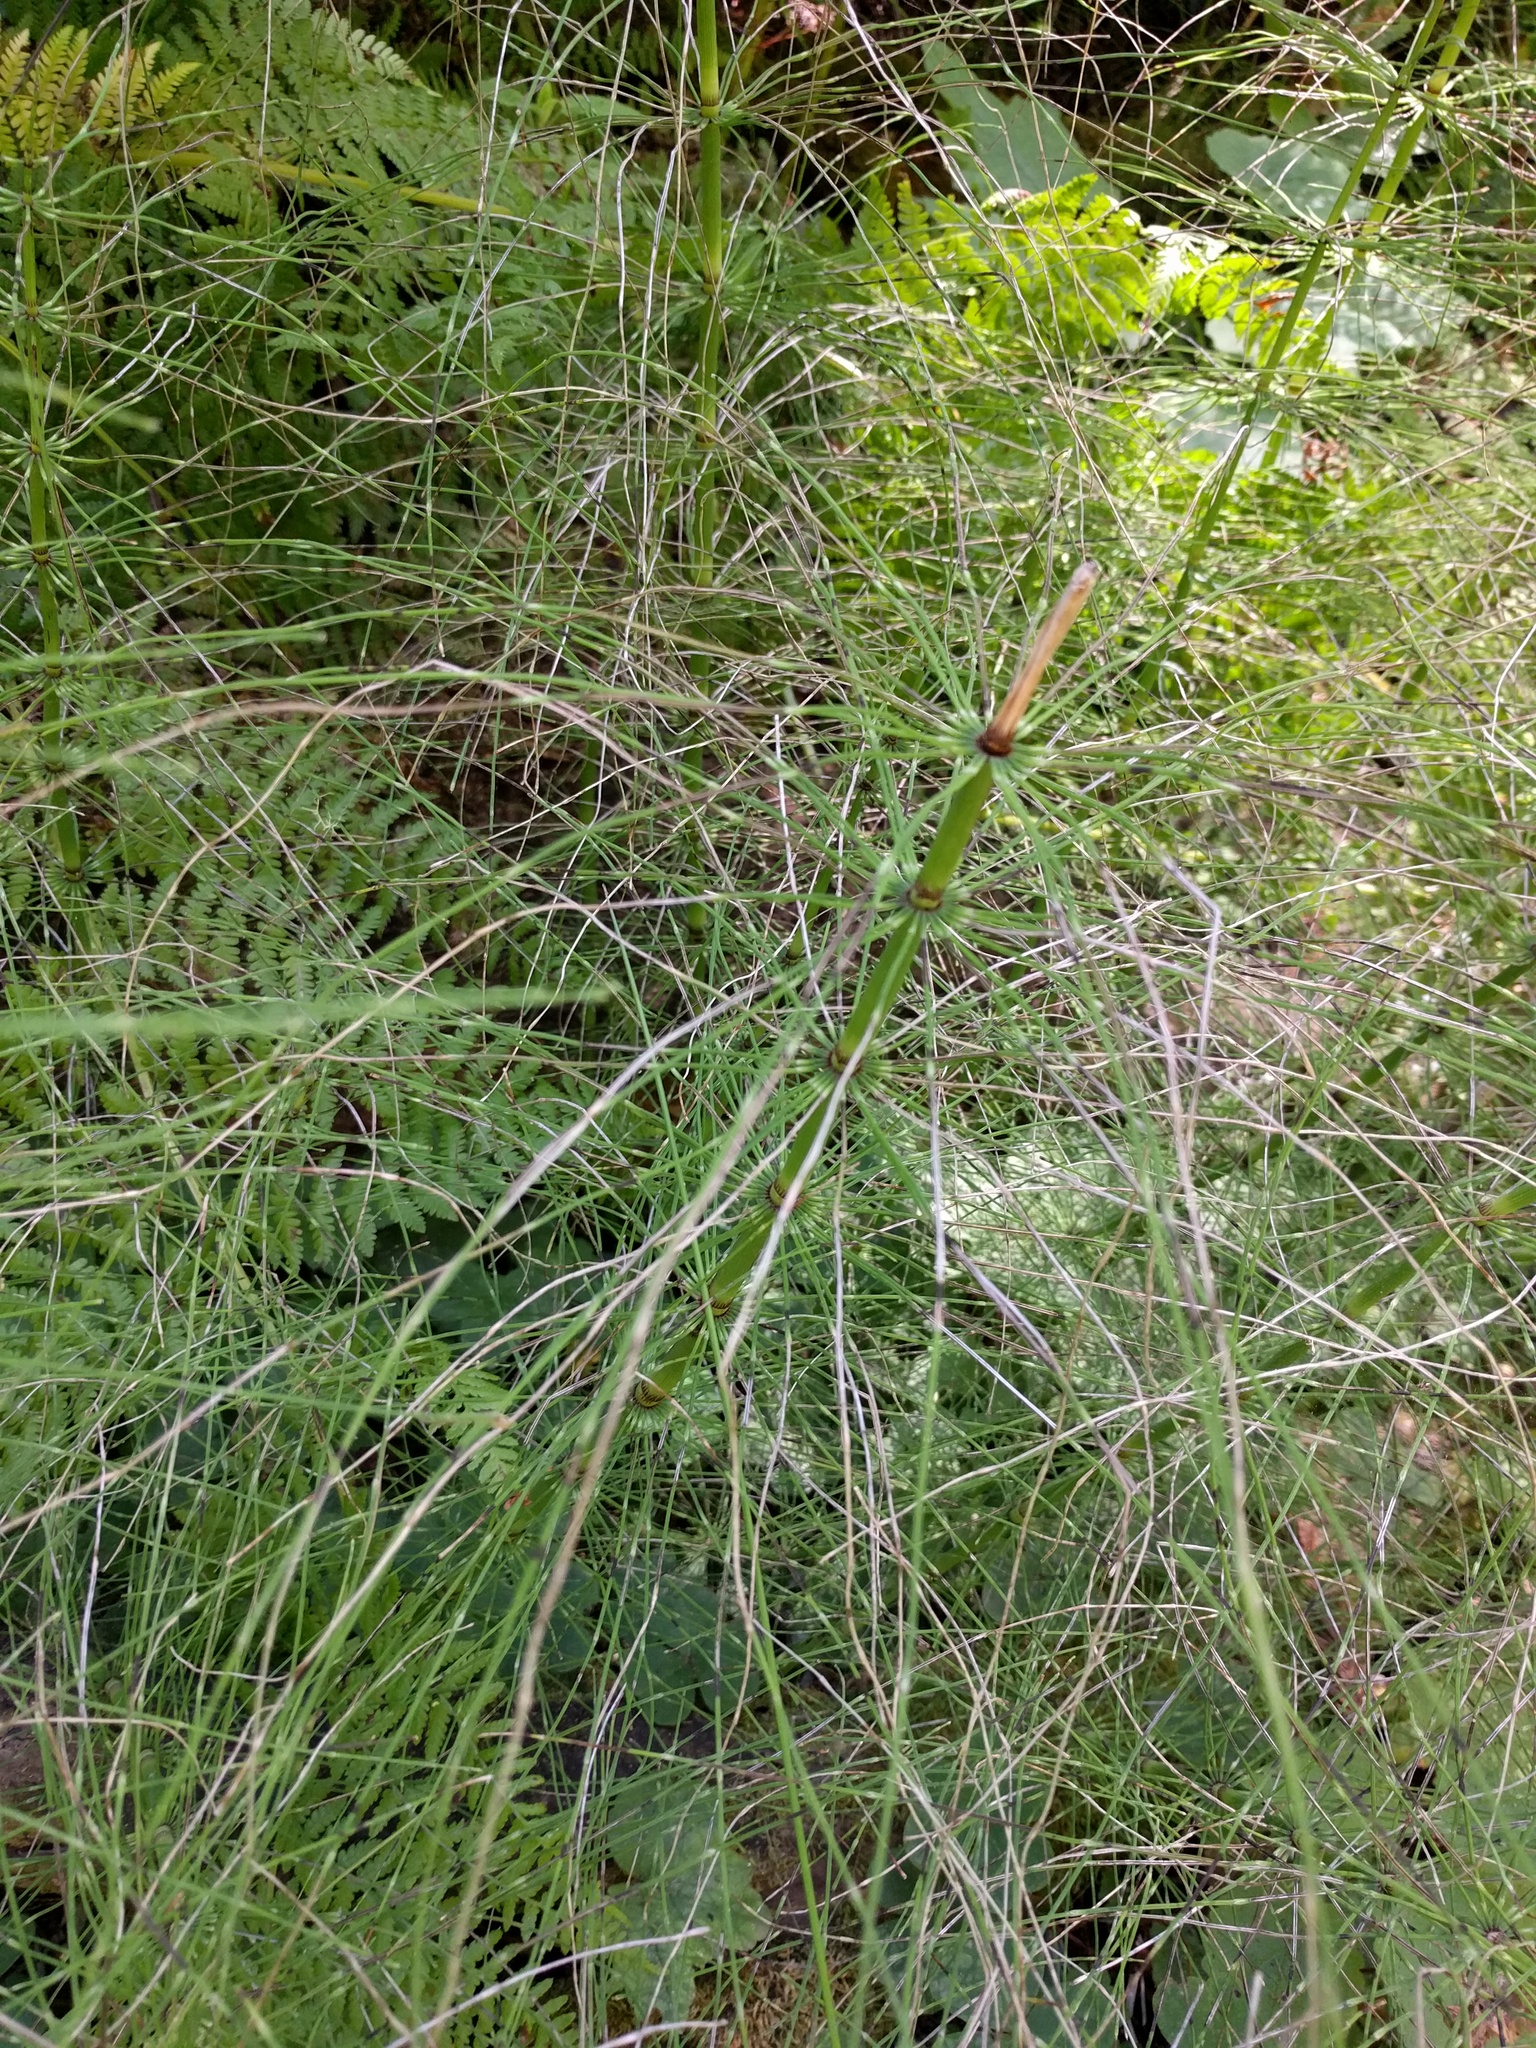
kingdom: Plantae
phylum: Tracheophyta
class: Polypodiopsida
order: Equisetales
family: Equisetaceae
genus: Equisetum
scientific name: Equisetum braunii
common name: Braun's horsetail
